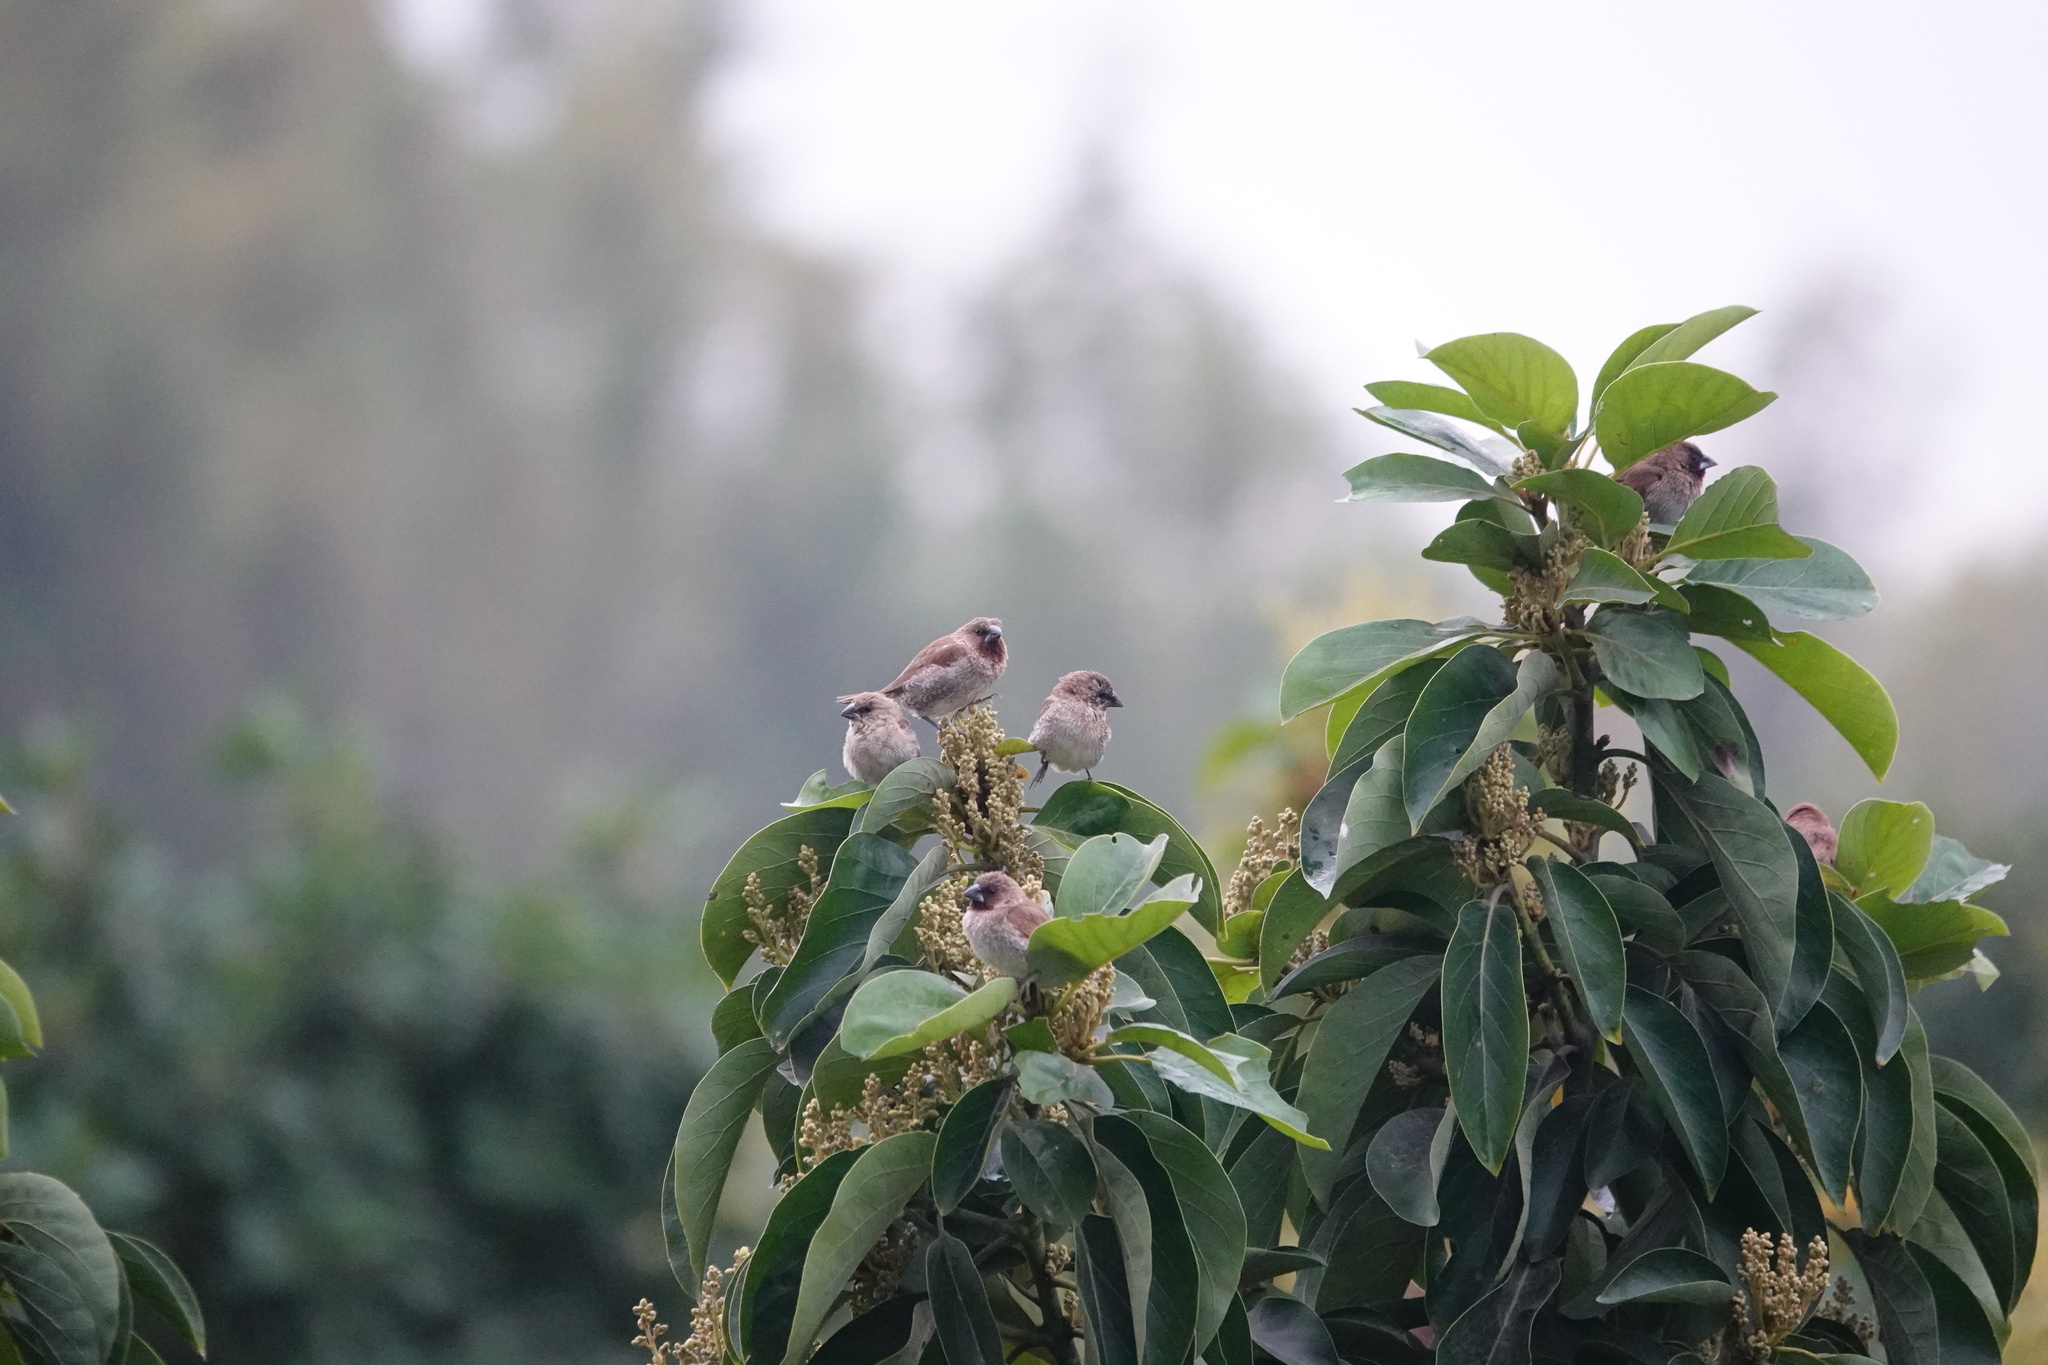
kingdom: Animalia
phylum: Chordata
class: Aves
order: Passeriformes
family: Estrildidae
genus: Lonchura
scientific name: Lonchura punctulata
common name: Scaly-breasted munia
